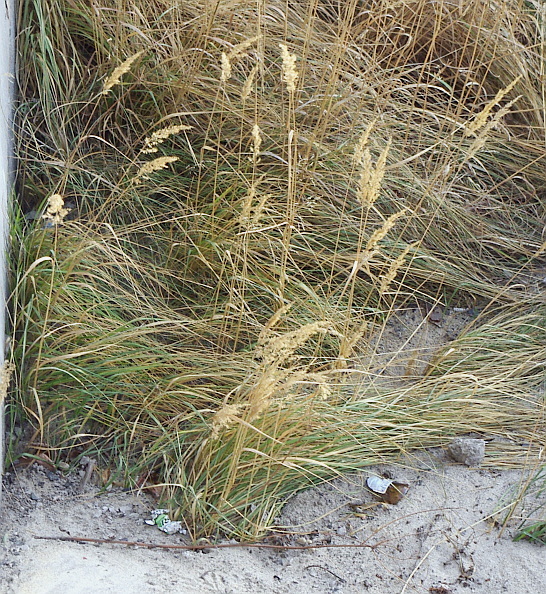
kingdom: Plantae
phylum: Tracheophyta
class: Liliopsida
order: Poales
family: Poaceae
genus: Calamagrostis
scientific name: Calamagrostis epigejos
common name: Wood small-reed
